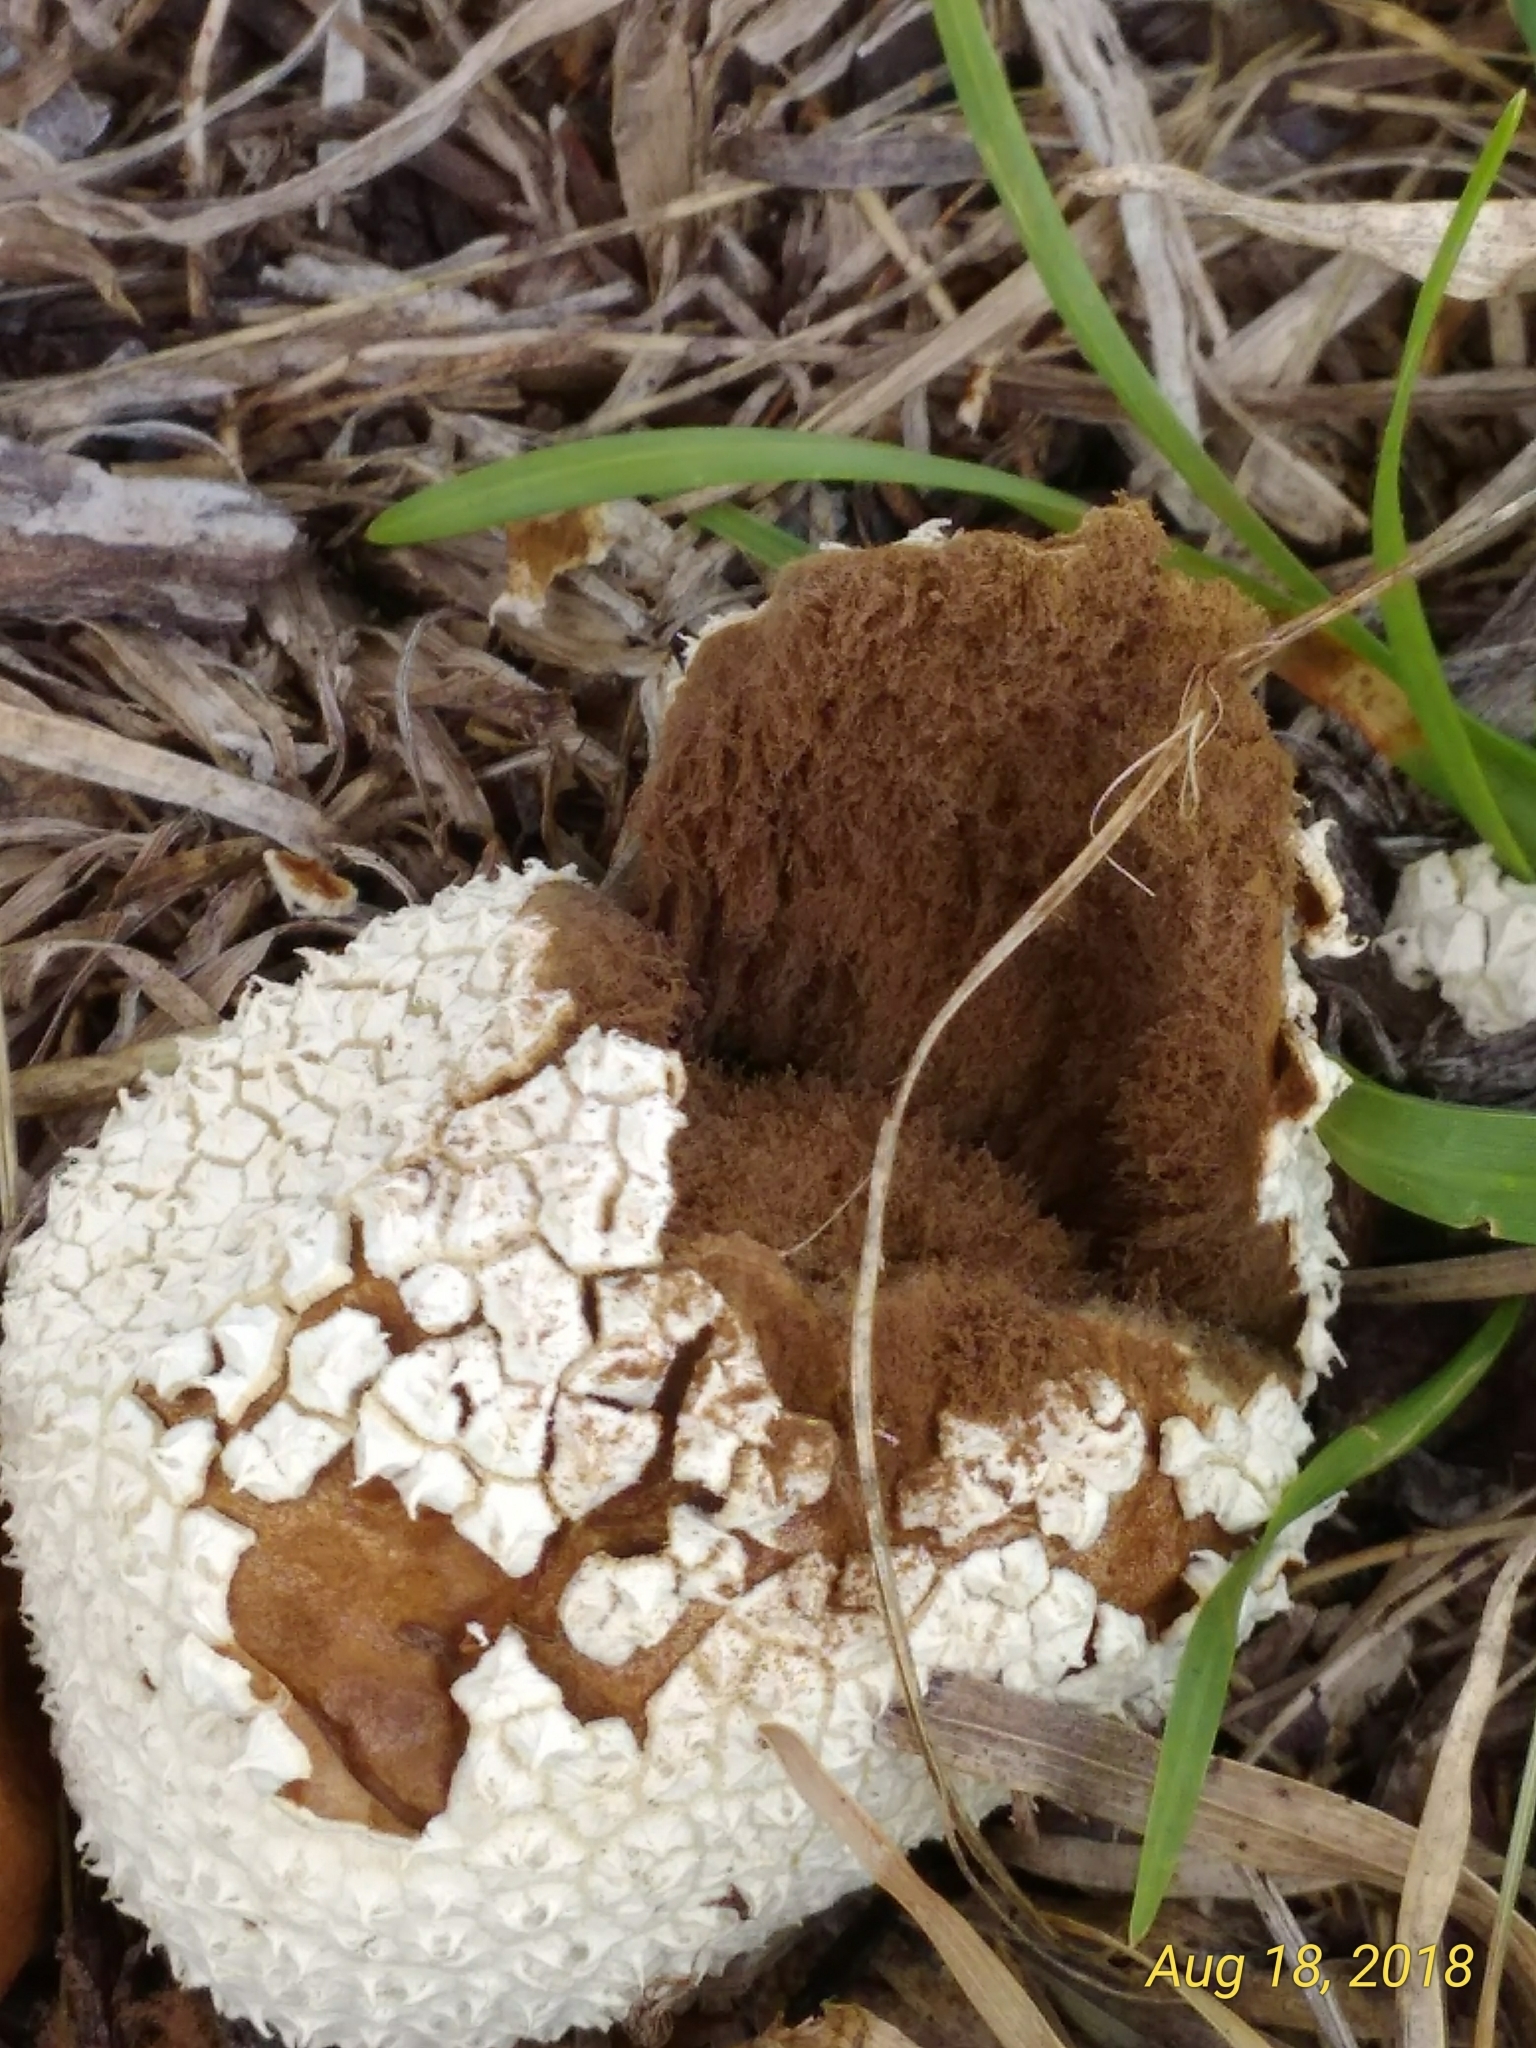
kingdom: Fungi
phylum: Basidiomycota
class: Agaricomycetes
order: Agaricales
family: Agaricaceae
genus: Lycoperdon
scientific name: Lycoperdon marginatum
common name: Peeling puffball
